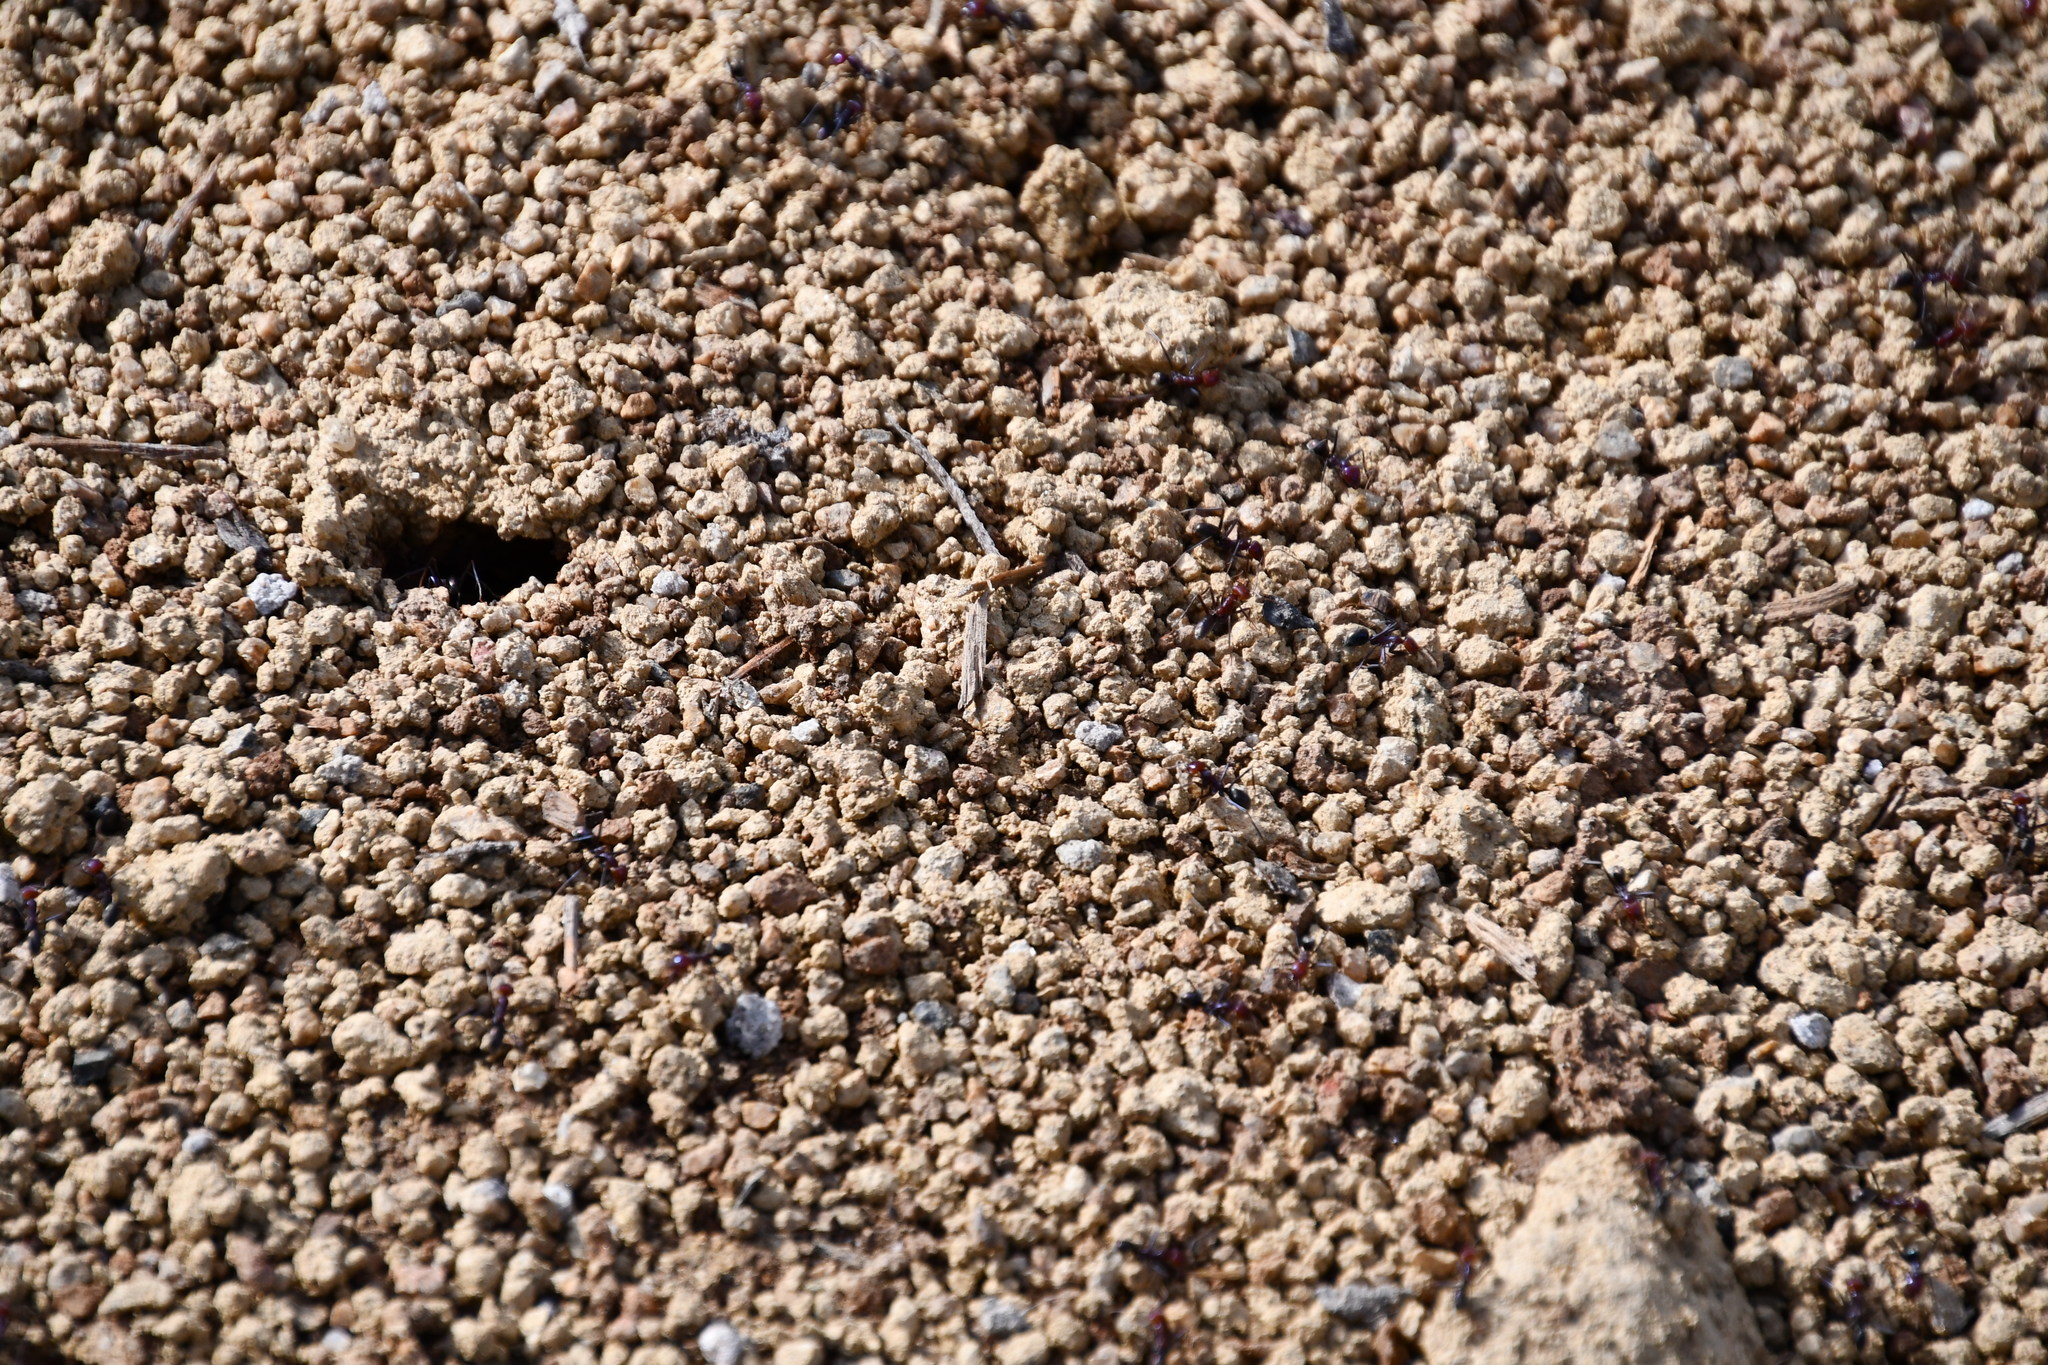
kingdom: Animalia
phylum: Arthropoda
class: Insecta
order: Hymenoptera
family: Formicidae
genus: Iridomyrmex
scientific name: Iridomyrmex purpureus
